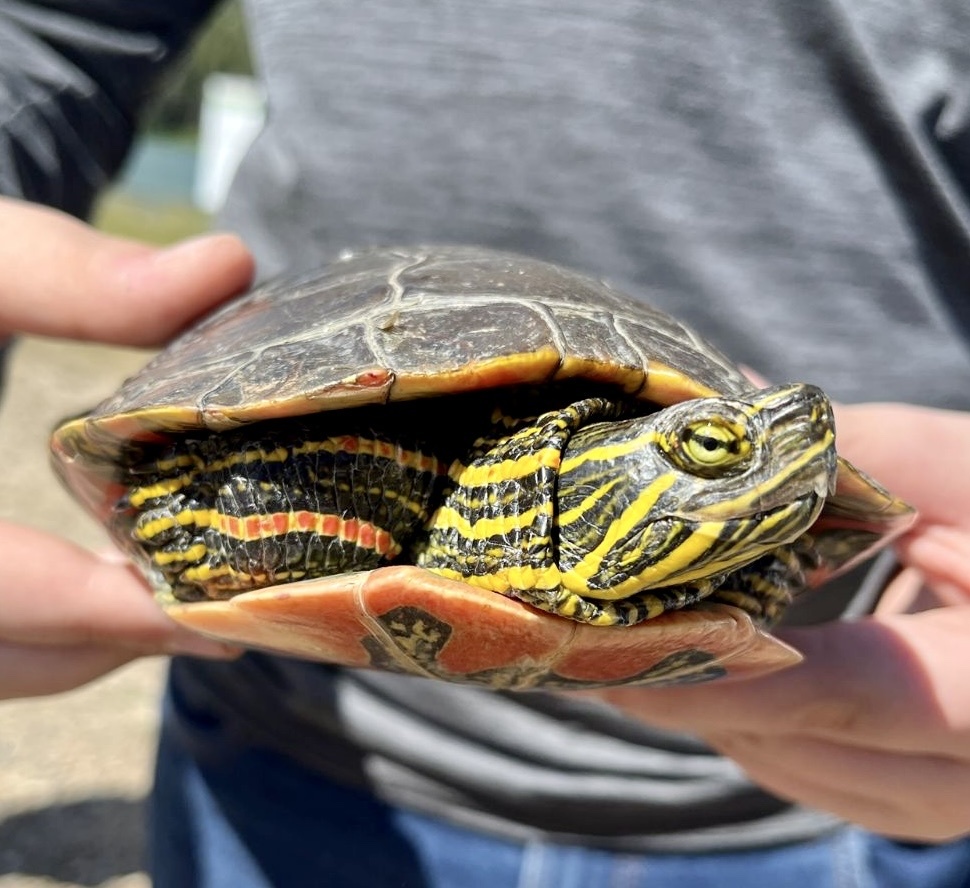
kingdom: Animalia
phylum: Chordata
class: Testudines
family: Emydidae
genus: Chrysemys
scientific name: Chrysemys picta
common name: Painted turtle
